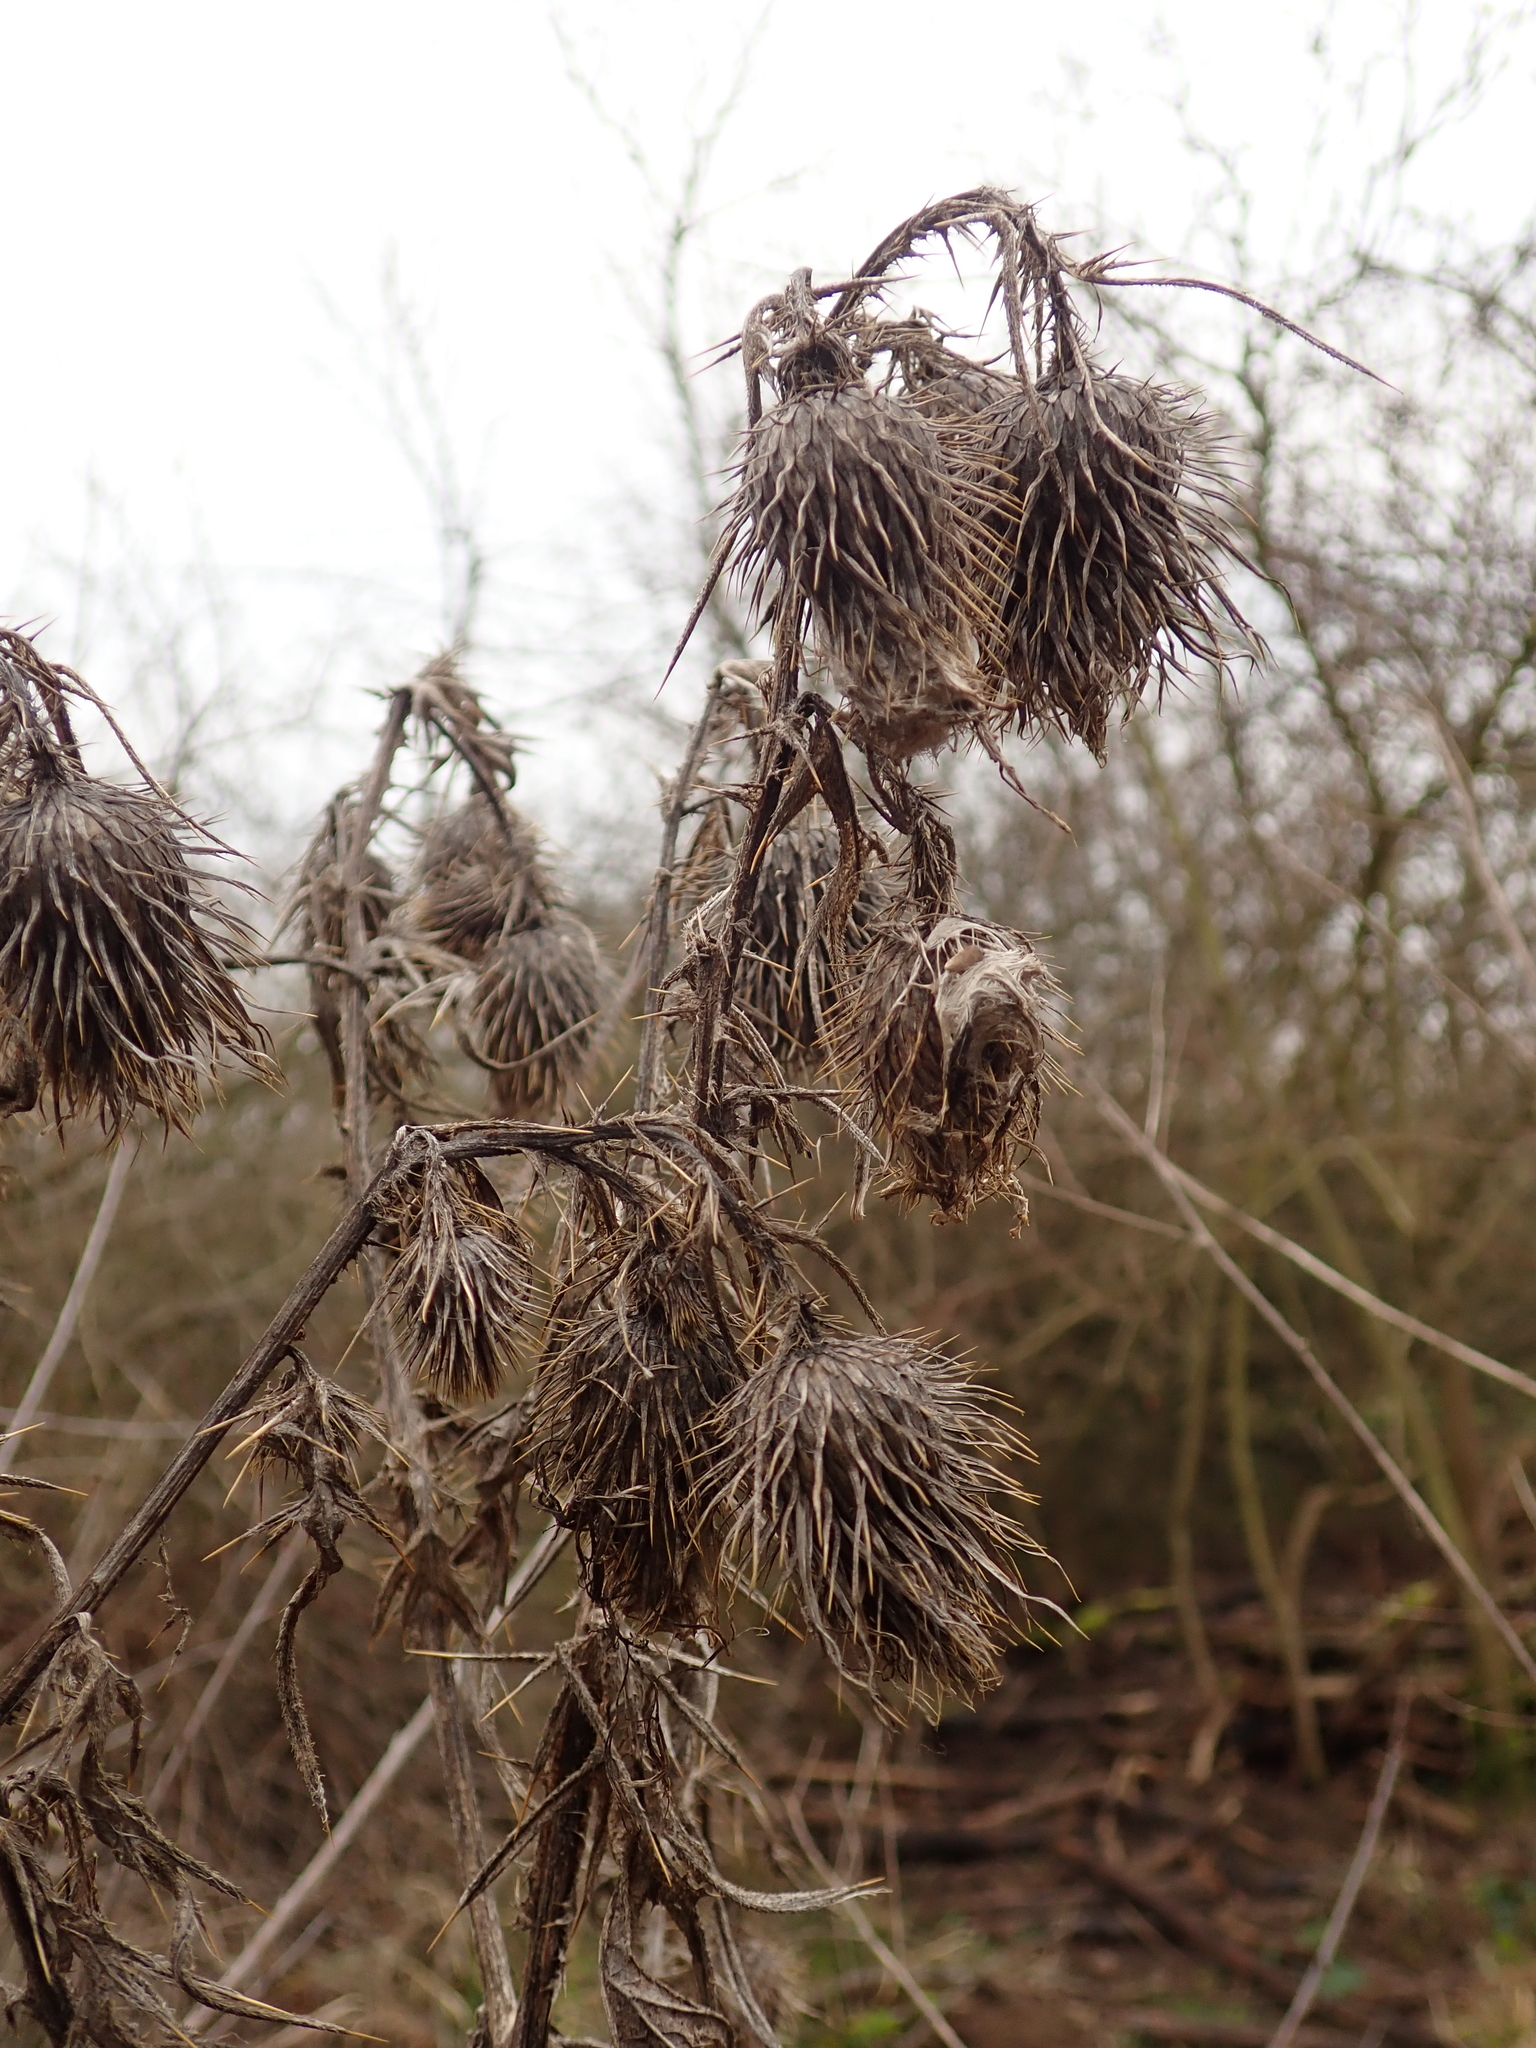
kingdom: Plantae
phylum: Tracheophyta
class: Magnoliopsida
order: Asterales
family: Asteraceae
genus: Cirsium
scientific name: Cirsium vulgare
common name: Bull thistle
